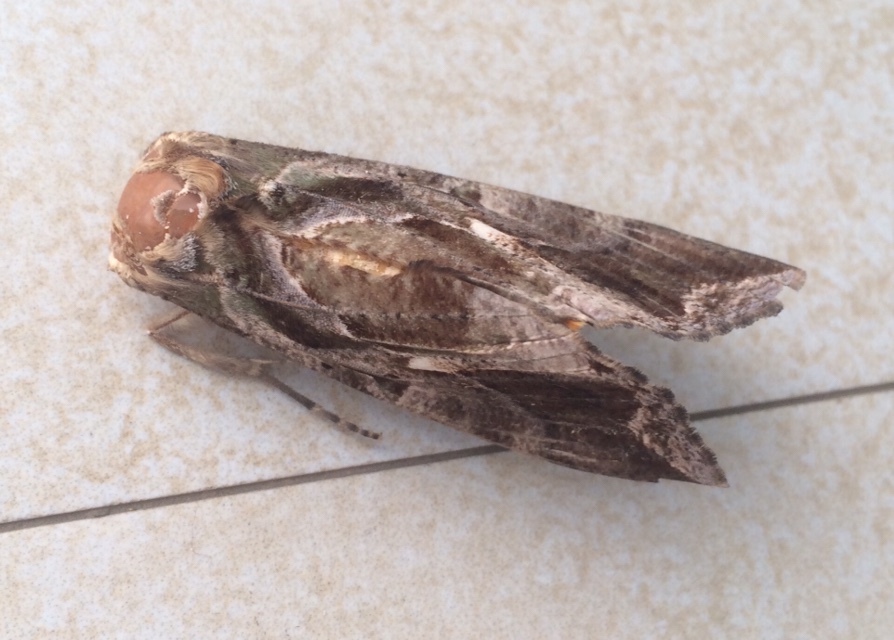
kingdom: Animalia
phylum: Arthropoda
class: Insecta
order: Lepidoptera
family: Erebidae
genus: Eudocima
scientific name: Eudocima phalonia
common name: Wasp
